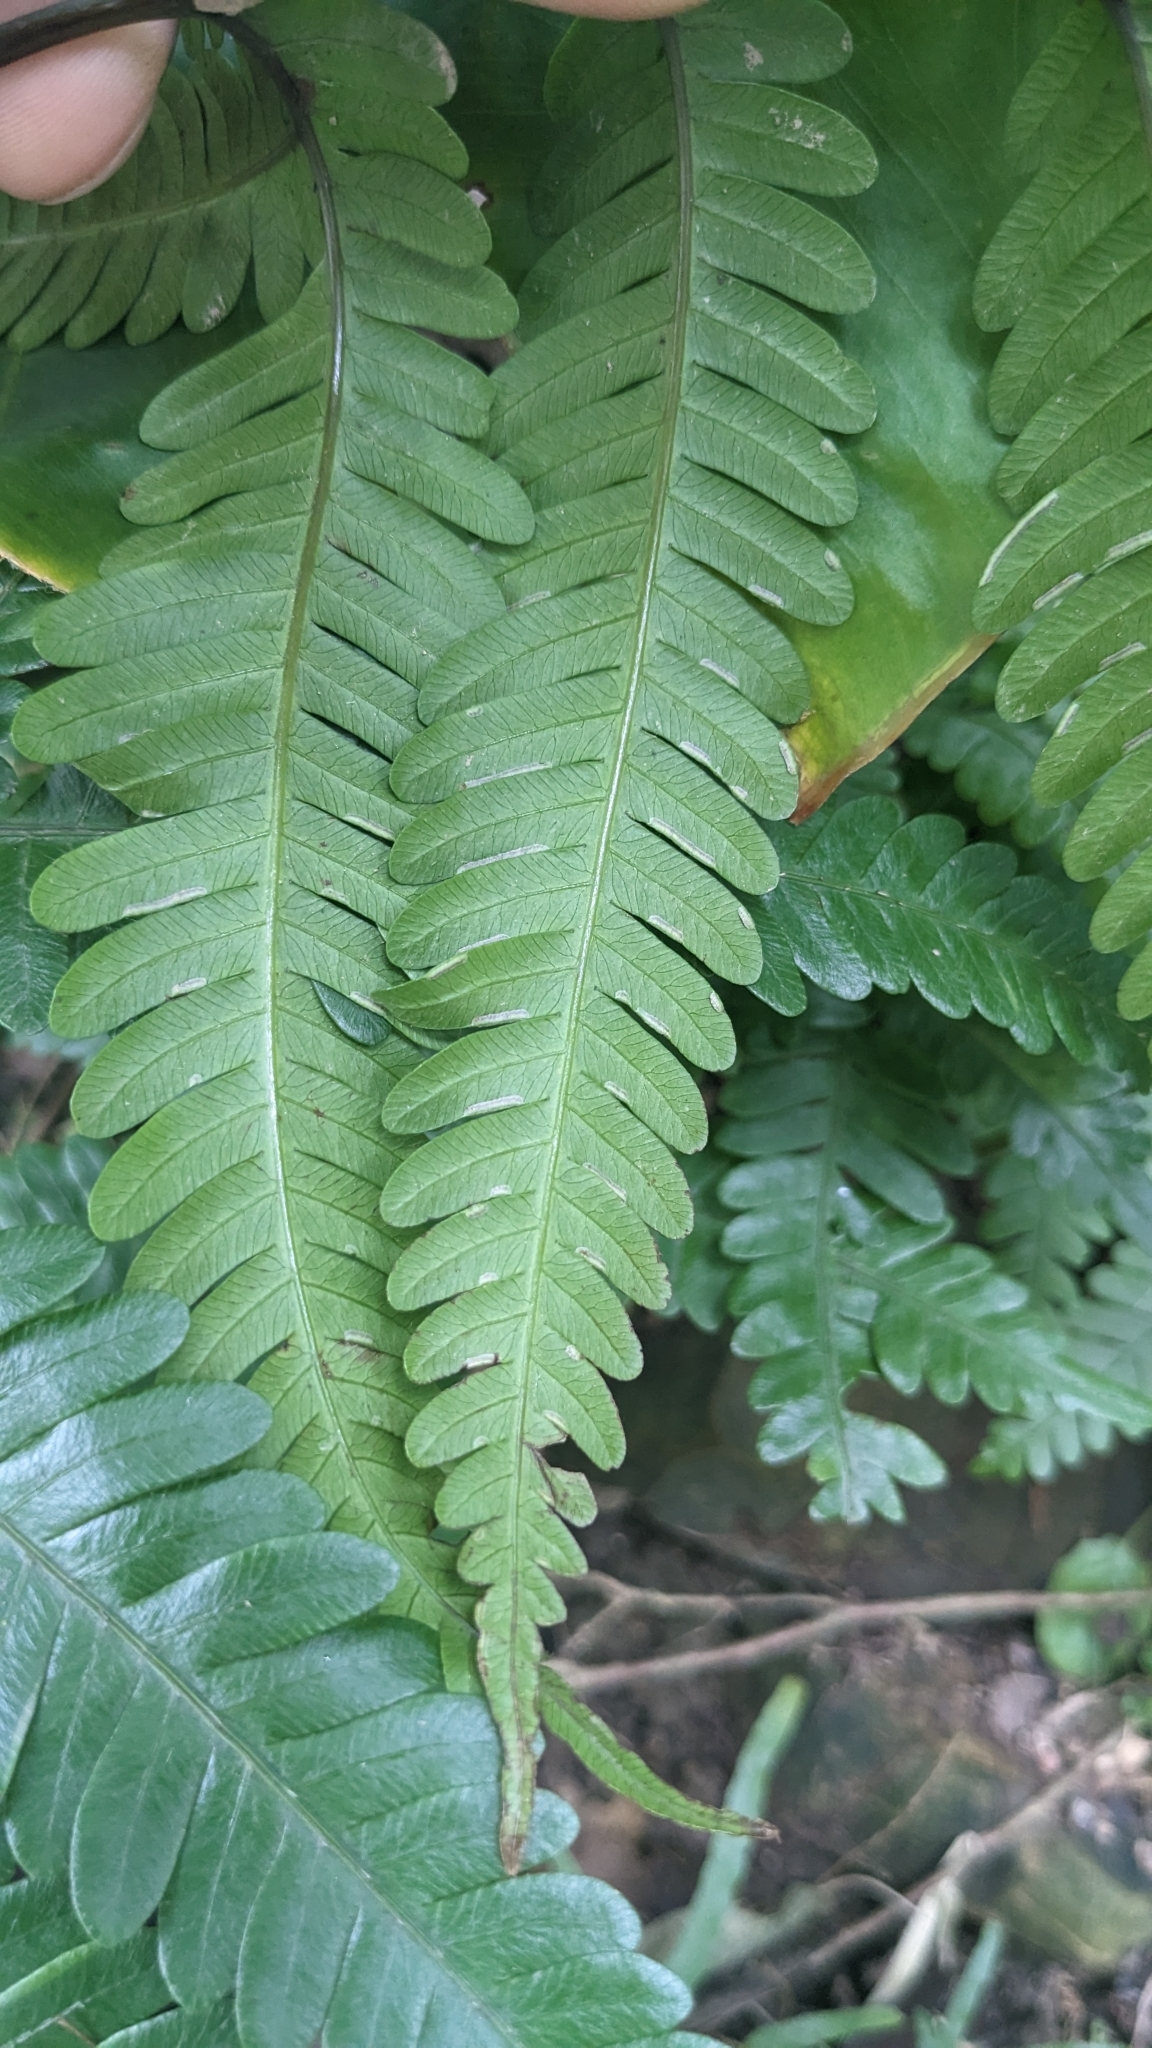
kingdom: Plantae
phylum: Tracheophyta
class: Polypodiopsida
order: Polypodiales
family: Pteridaceae
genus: Pteris
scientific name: Pteris minor
